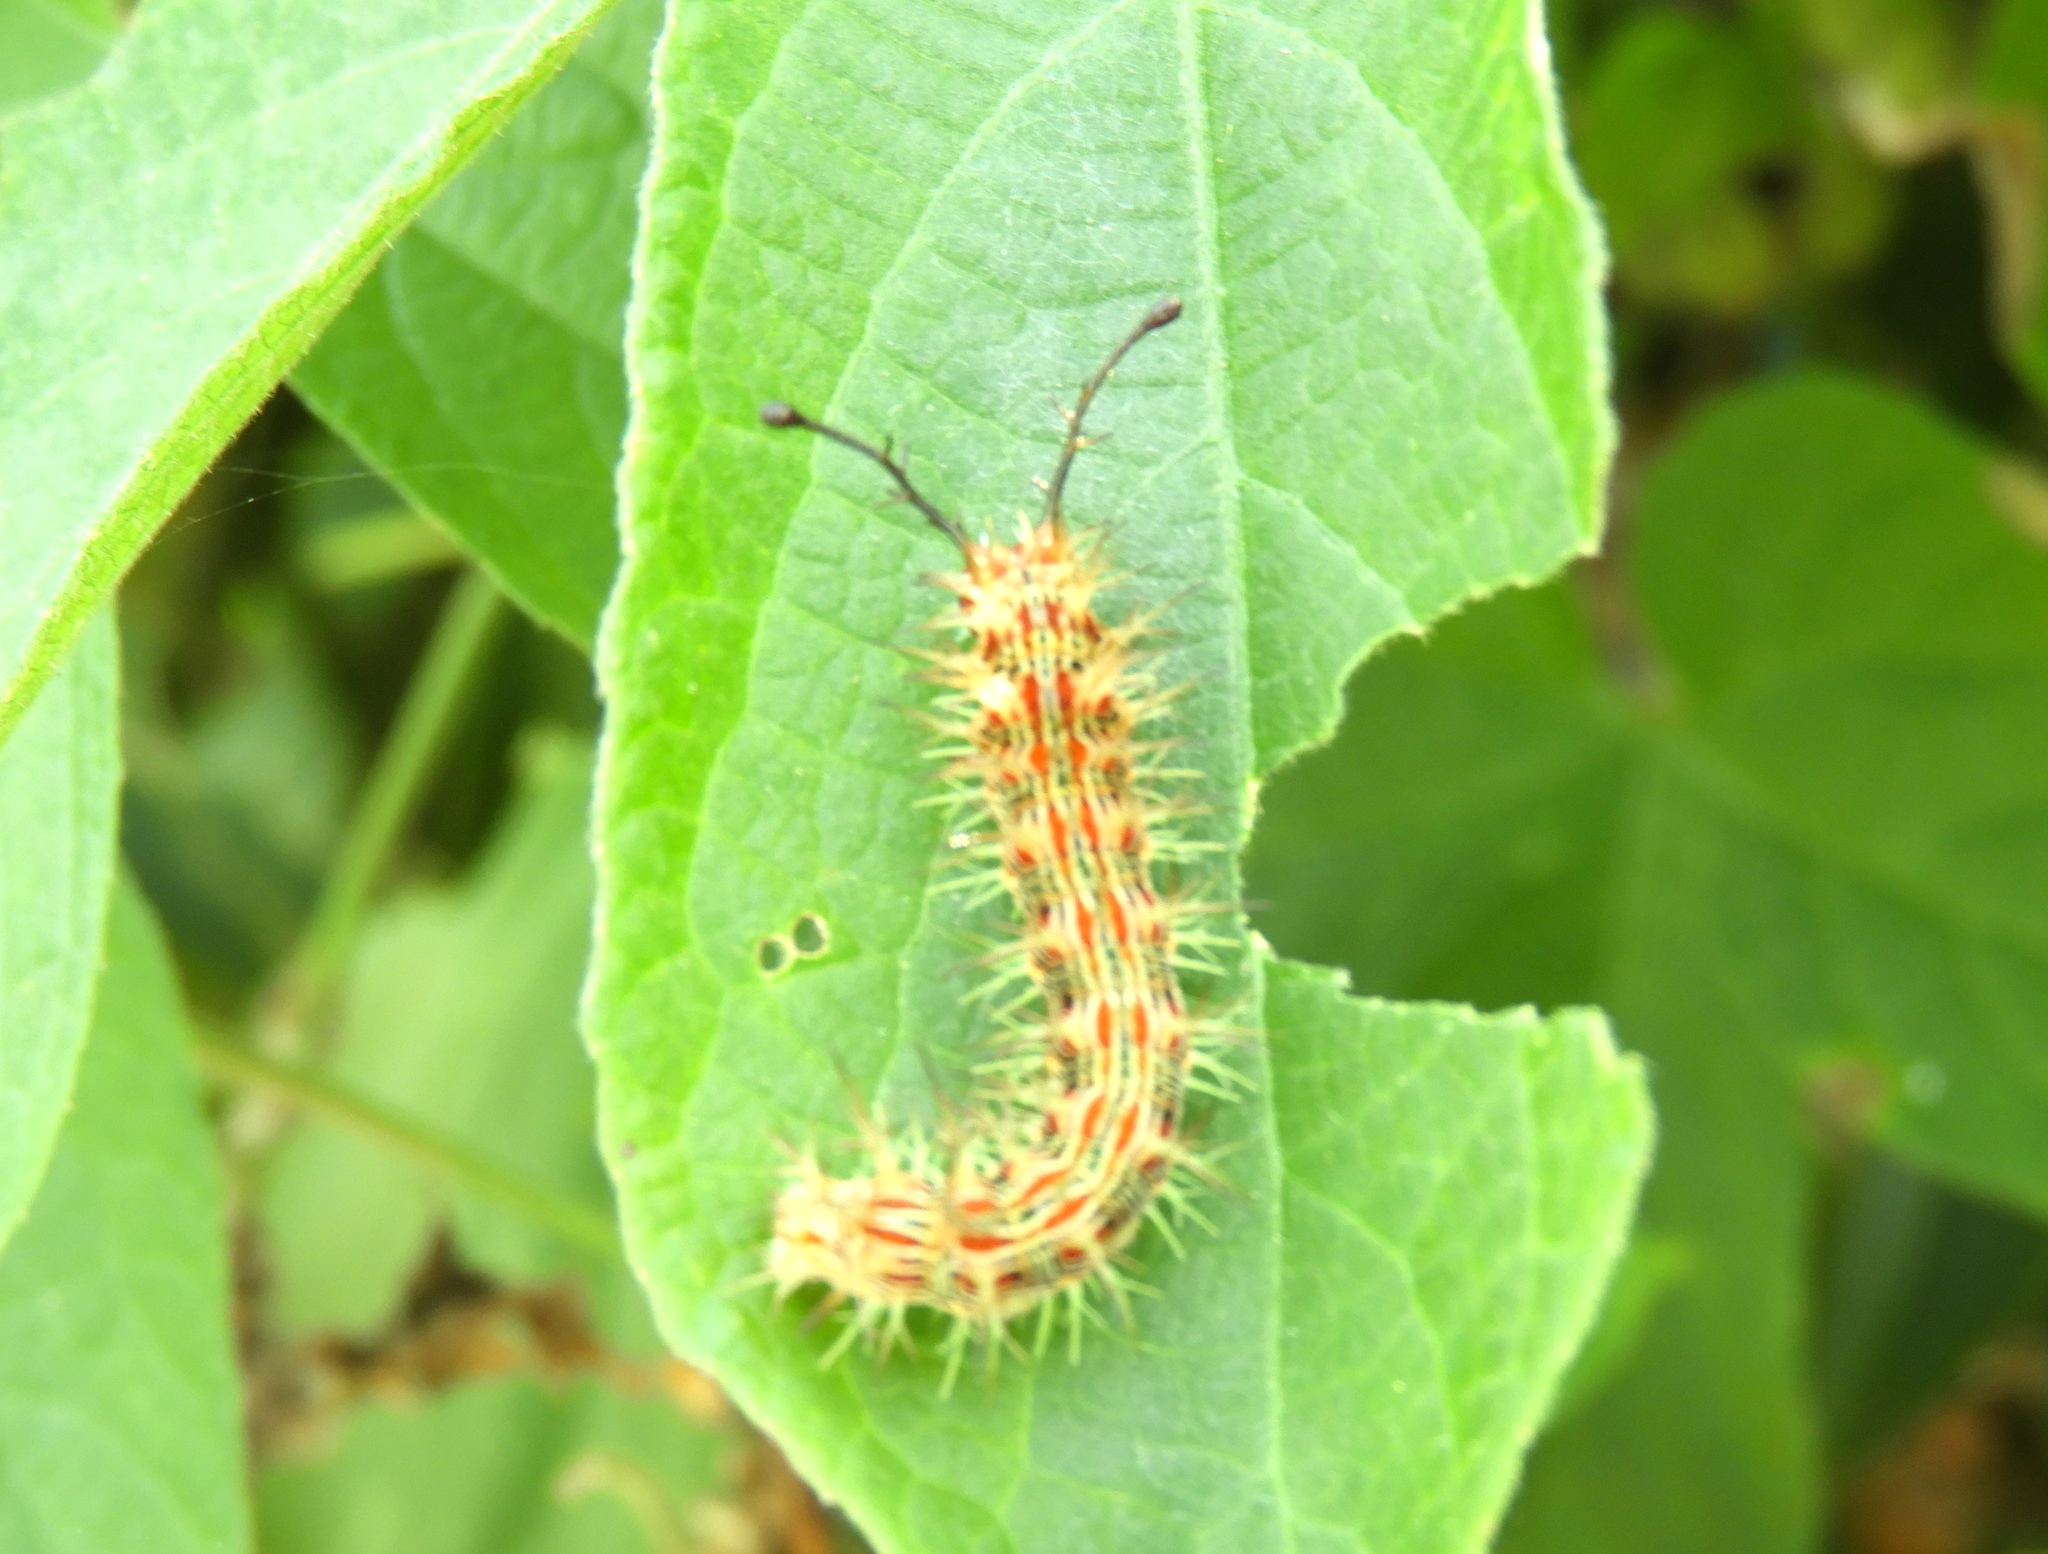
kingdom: Animalia
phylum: Arthropoda
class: Insecta
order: Lepidoptera
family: Nymphalidae
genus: Hamadryas
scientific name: Hamadryas februa
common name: Gray cracker
